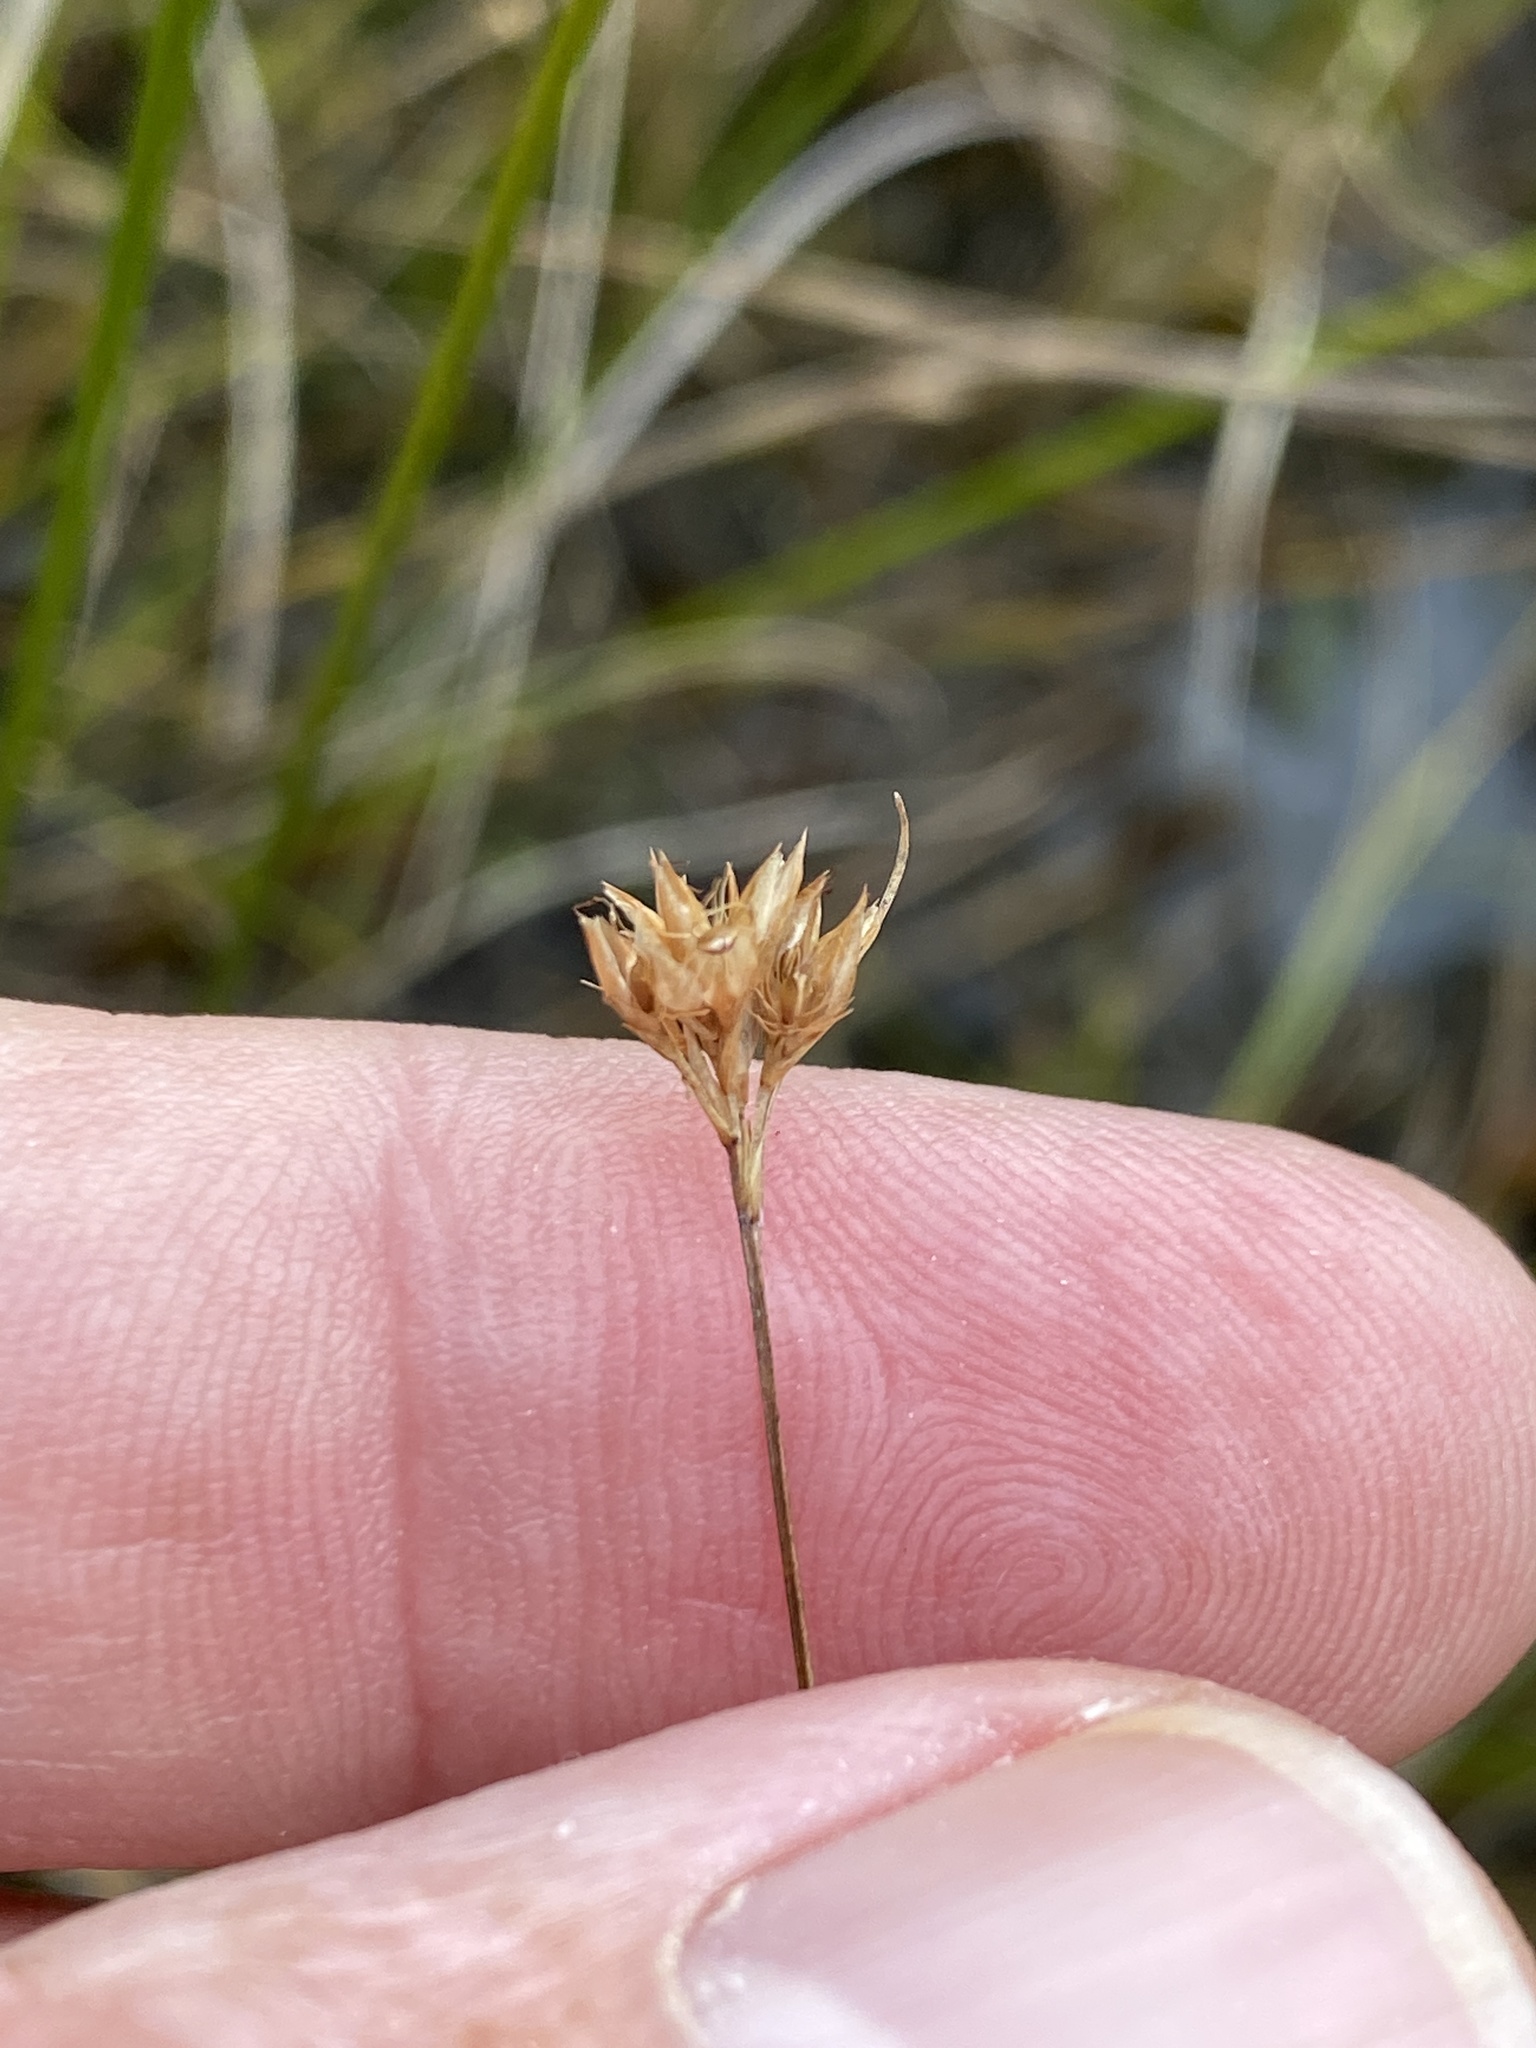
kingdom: Plantae
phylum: Tracheophyta
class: Liliopsida
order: Poales
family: Cyperaceae
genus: Rhynchospora
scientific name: Rhynchospora alba
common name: White beak-sedge
